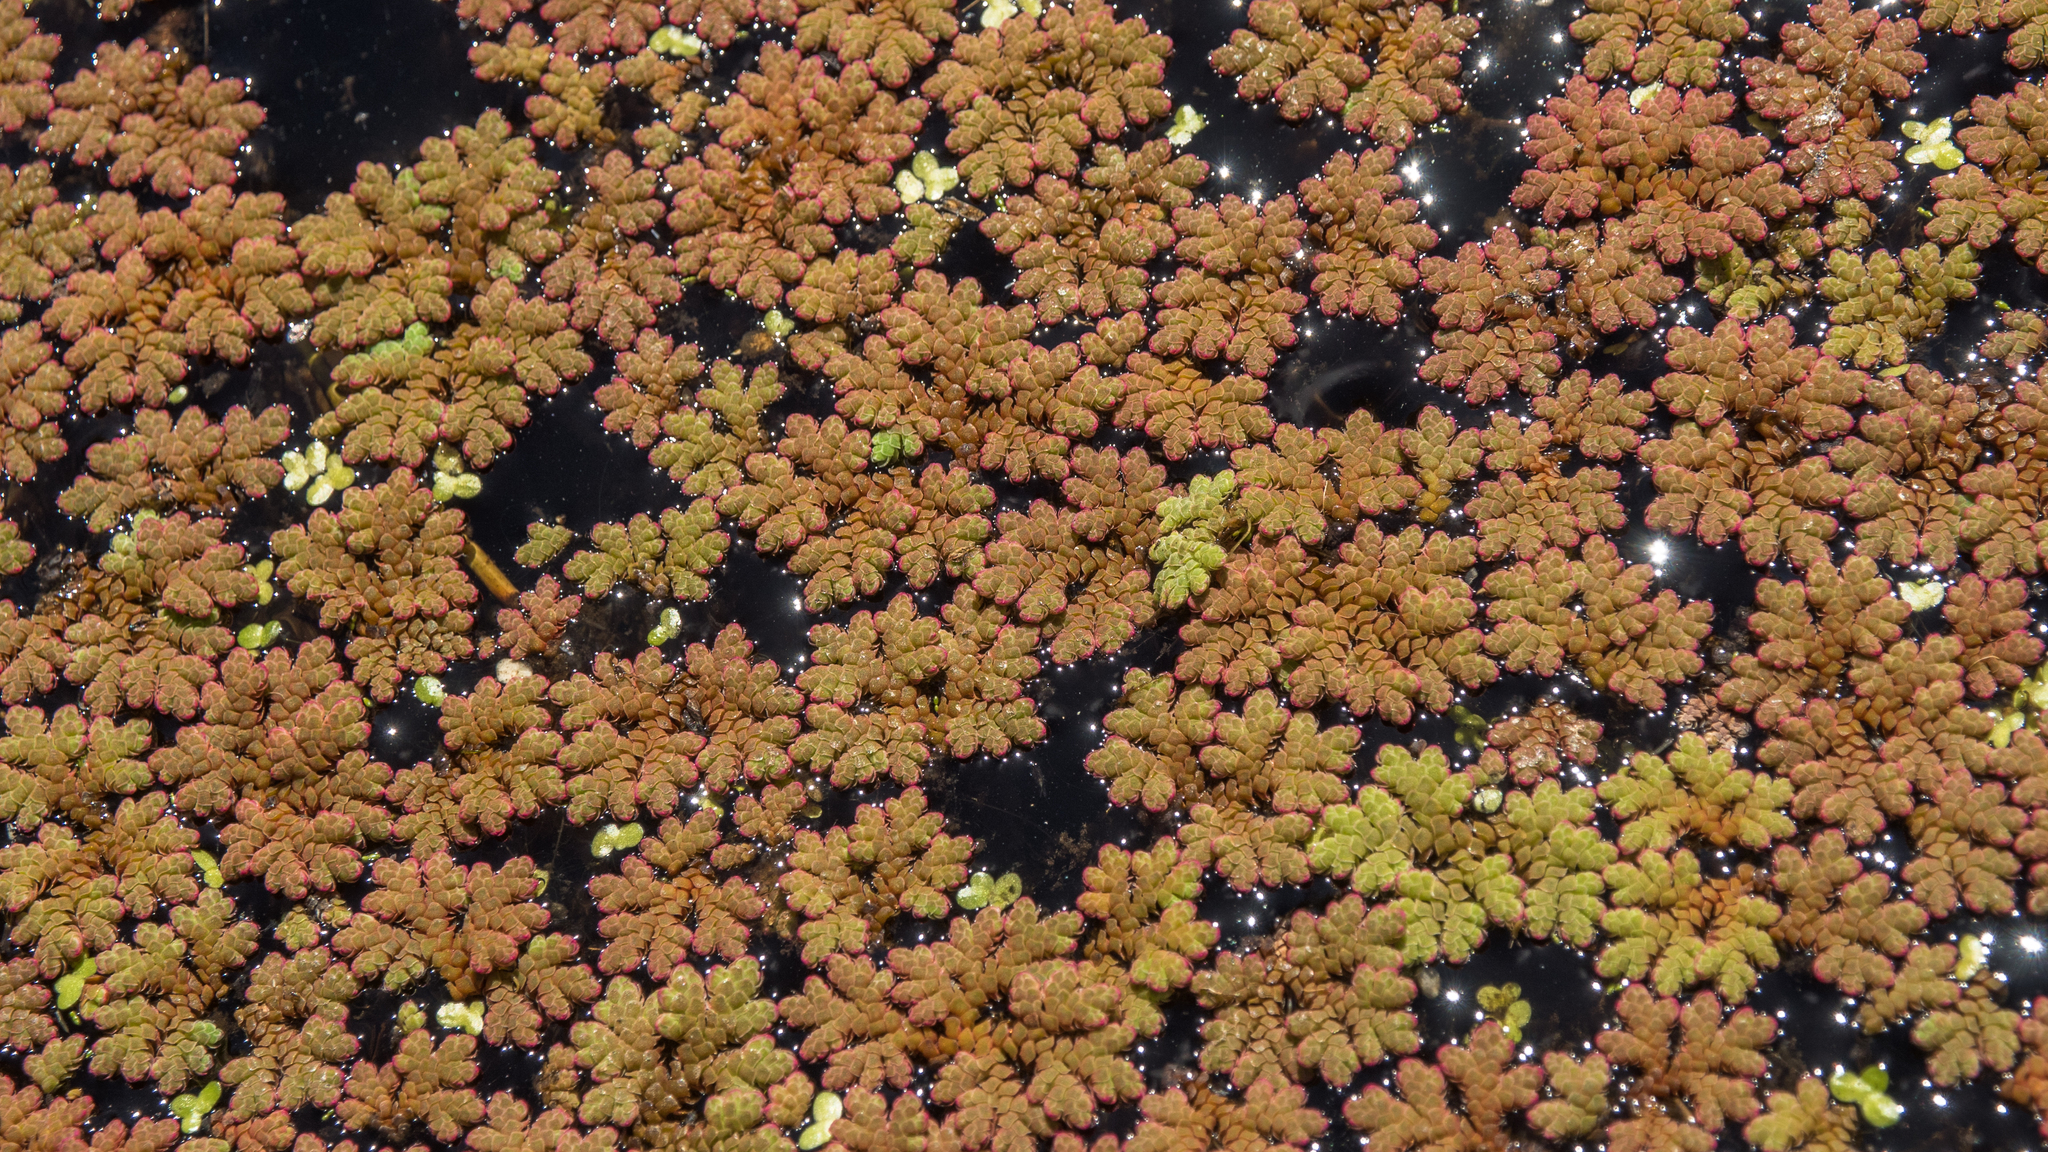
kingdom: Plantae
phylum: Tracheophyta
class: Polypodiopsida
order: Salviniales
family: Salviniaceae
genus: Azolla
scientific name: Azolla rubra
